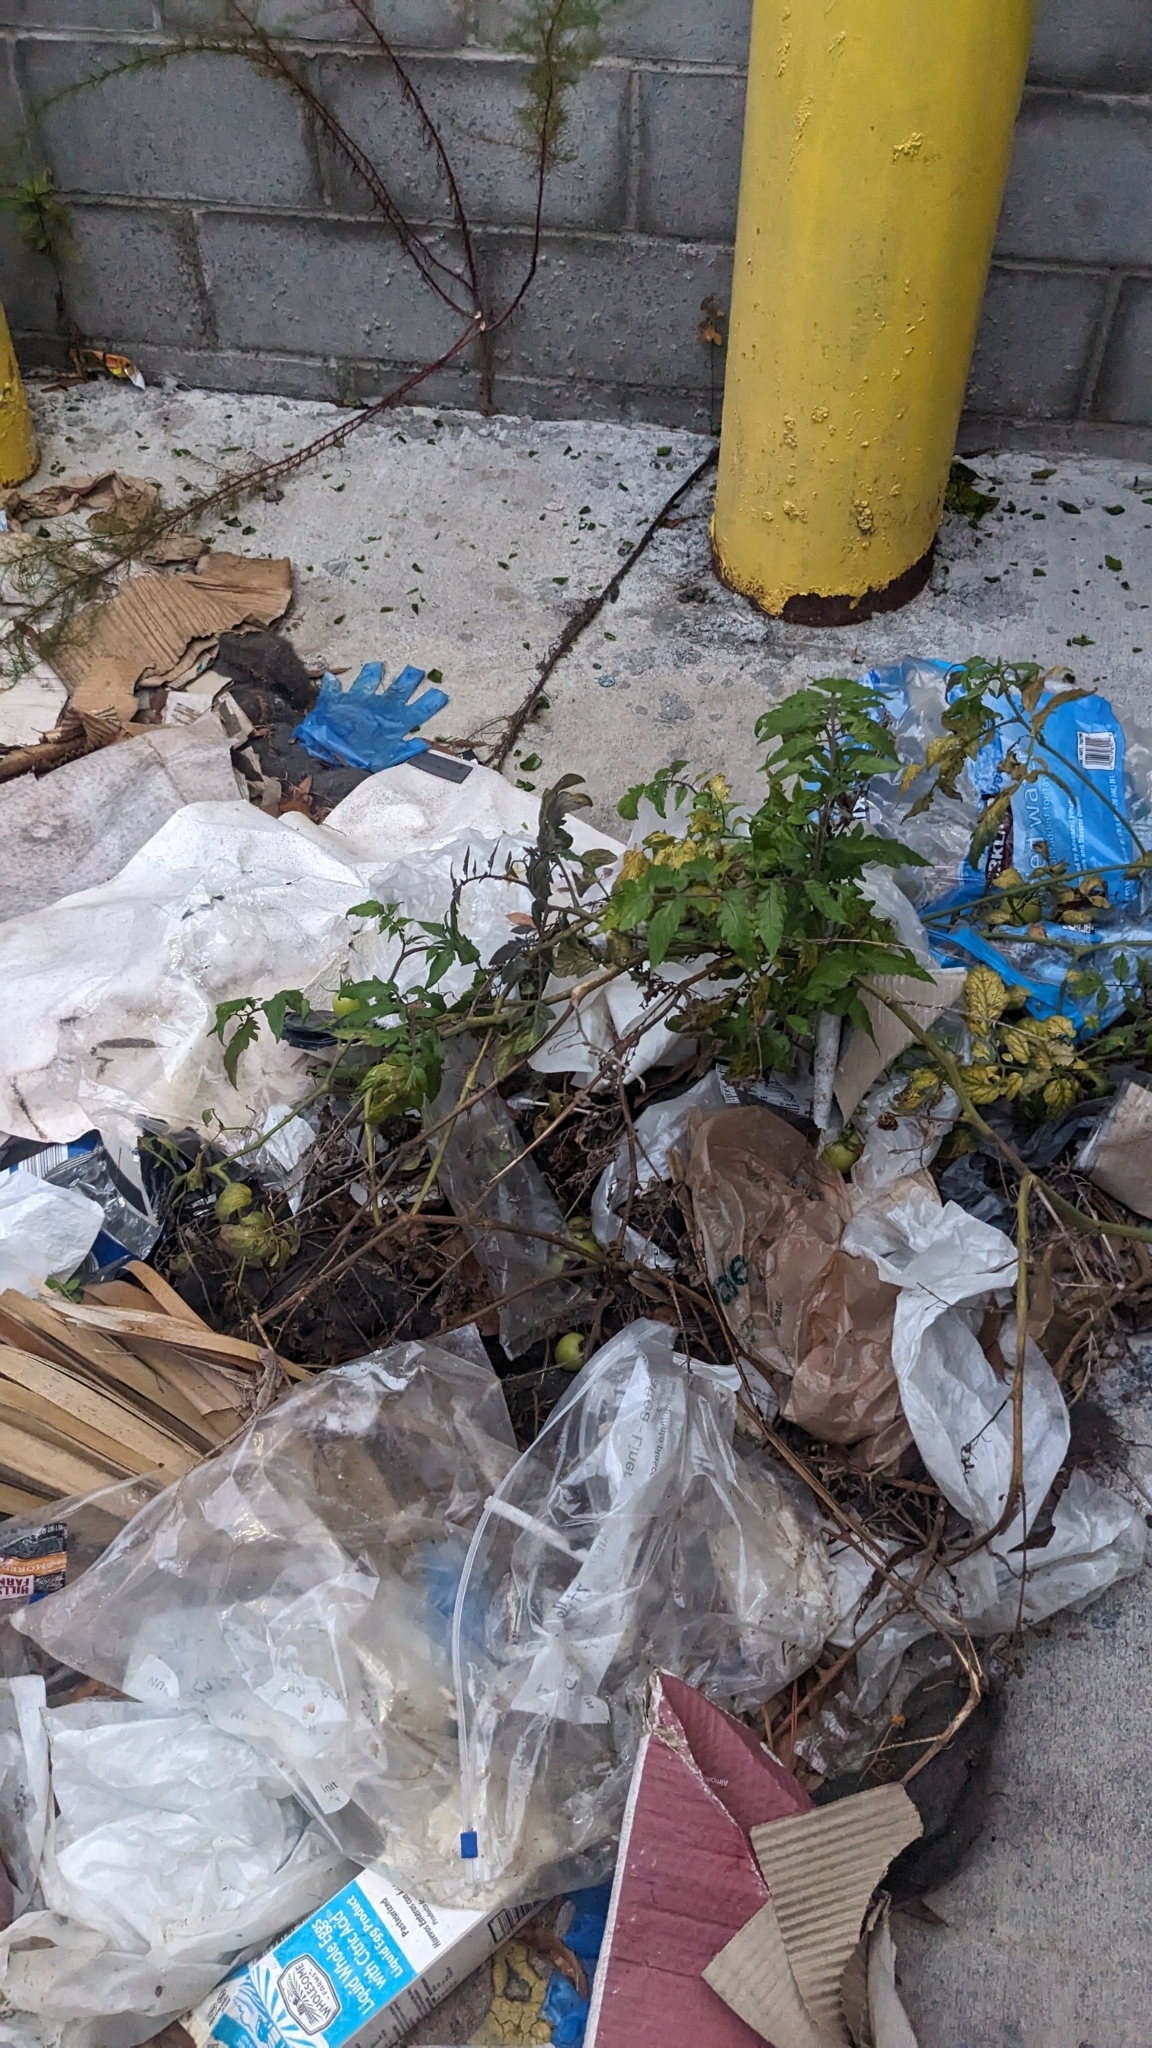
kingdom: Plantae
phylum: Tracheophyta
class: Magnoliopsida
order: Solanales
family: Solanaceae
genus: Solanum
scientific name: Solanum lycopersicum
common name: Garden tomato
